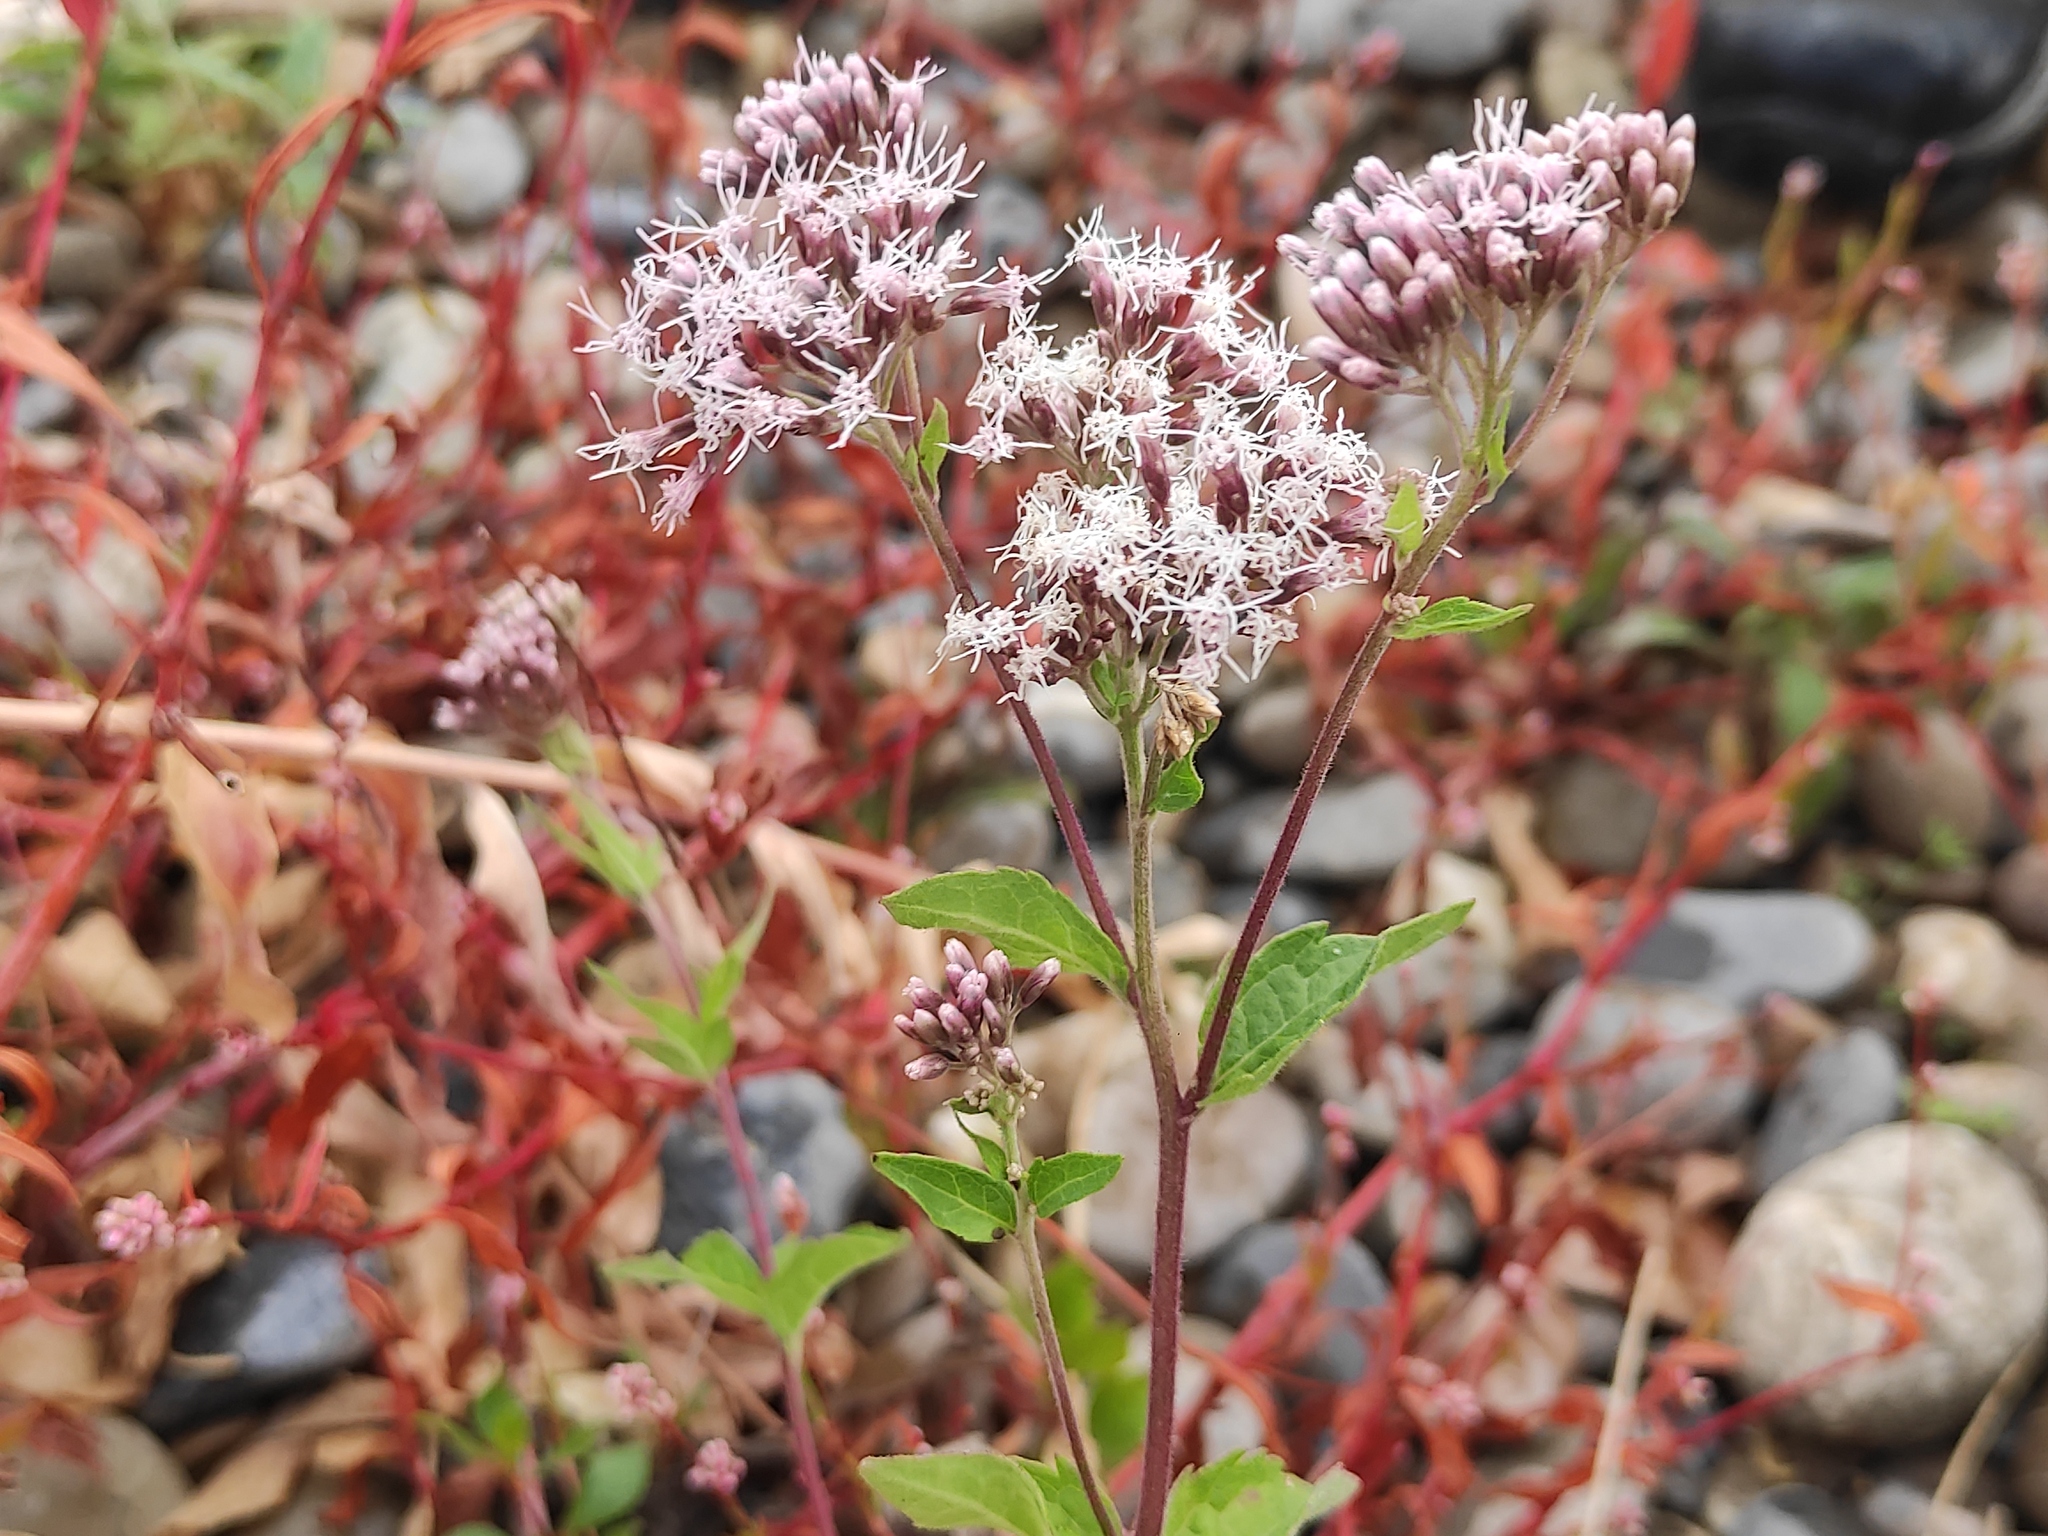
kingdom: Plantae
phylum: Tracheophyta
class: Magnoliopsida
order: Asterales
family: Asteraceae
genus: Eupatorium
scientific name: Eupatorium cannabinum
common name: Hemp-agrimony
